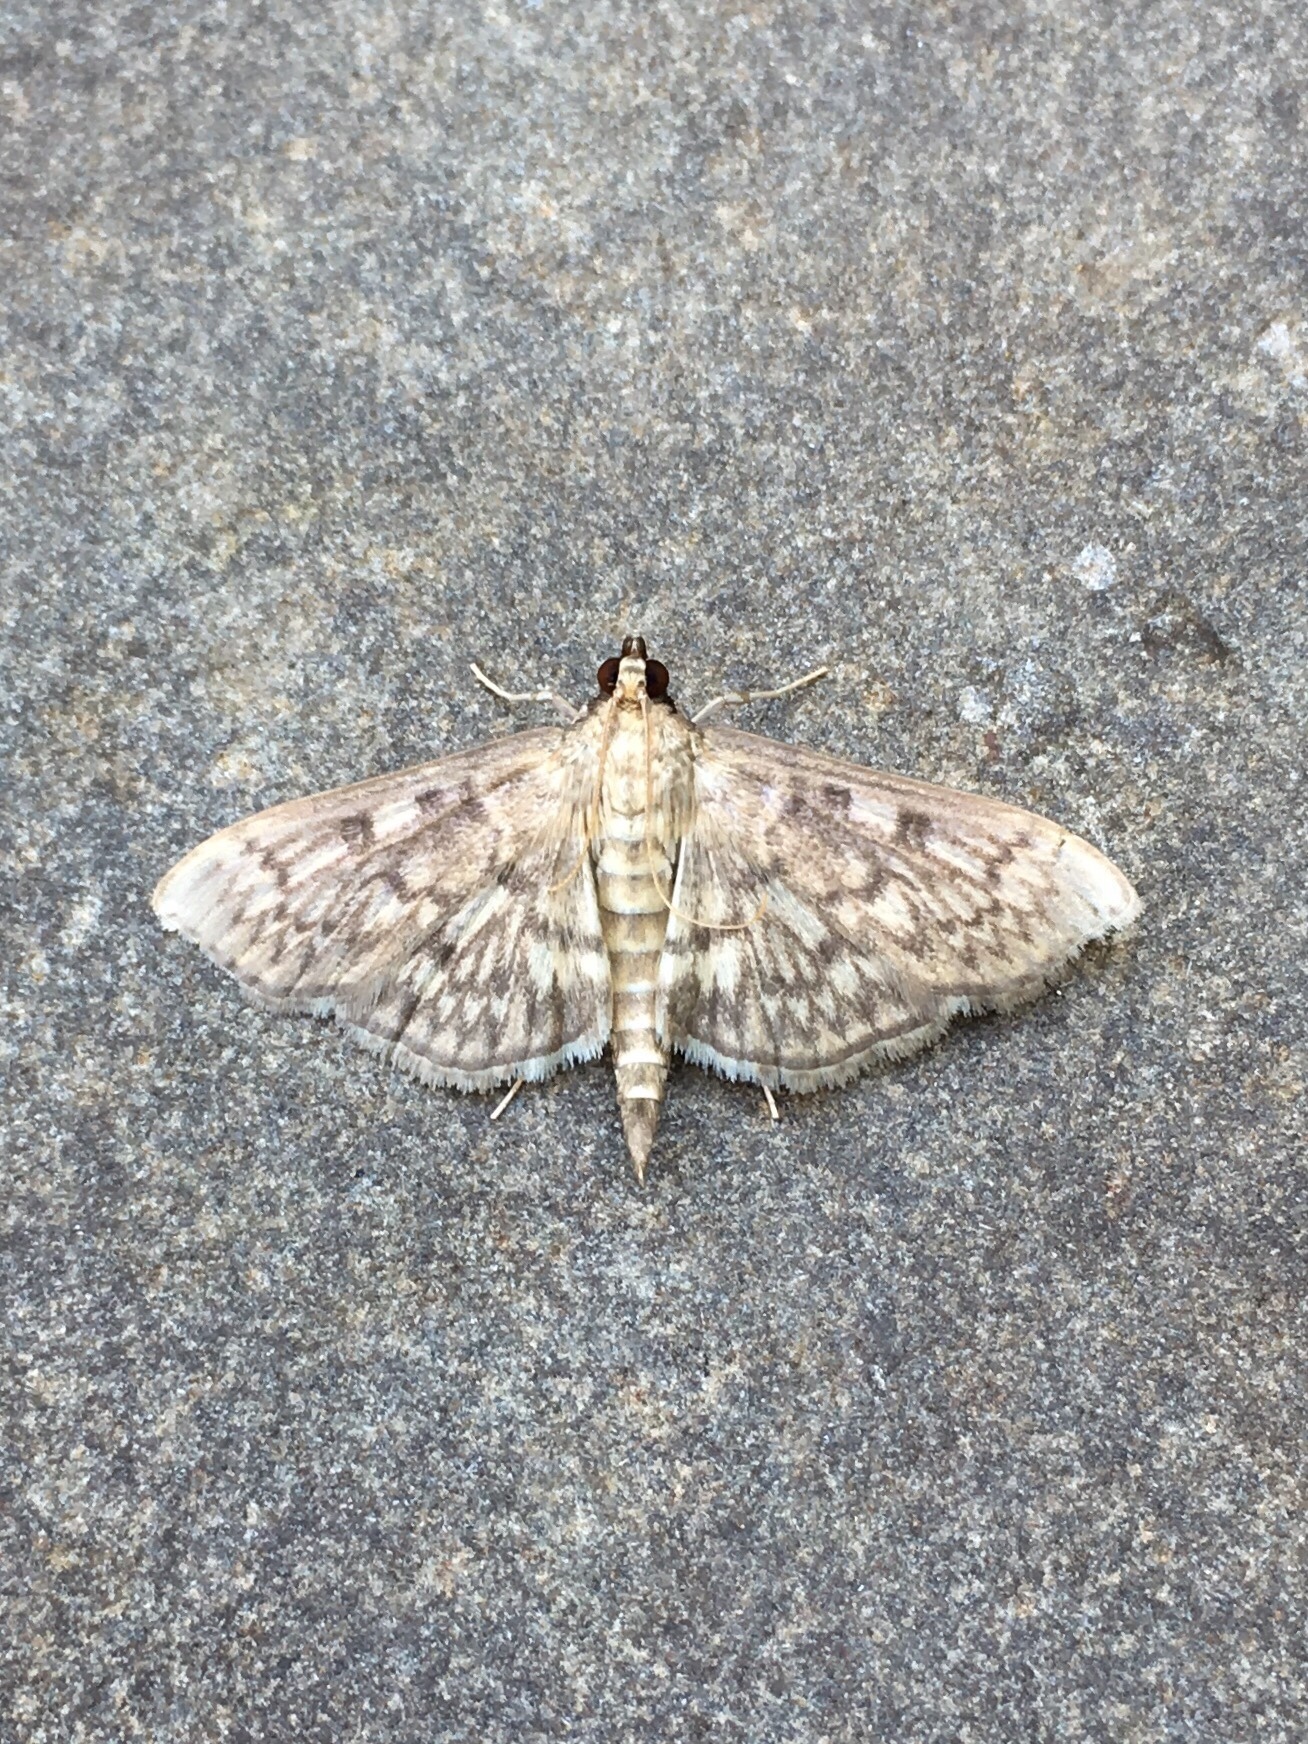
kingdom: Animalia
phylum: Arthropoda
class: Insecta
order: Lepidoptera
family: Crambidae
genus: Herpetogramma
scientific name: Herpetogramma pertextalis
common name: Bold-feathered grass moth
